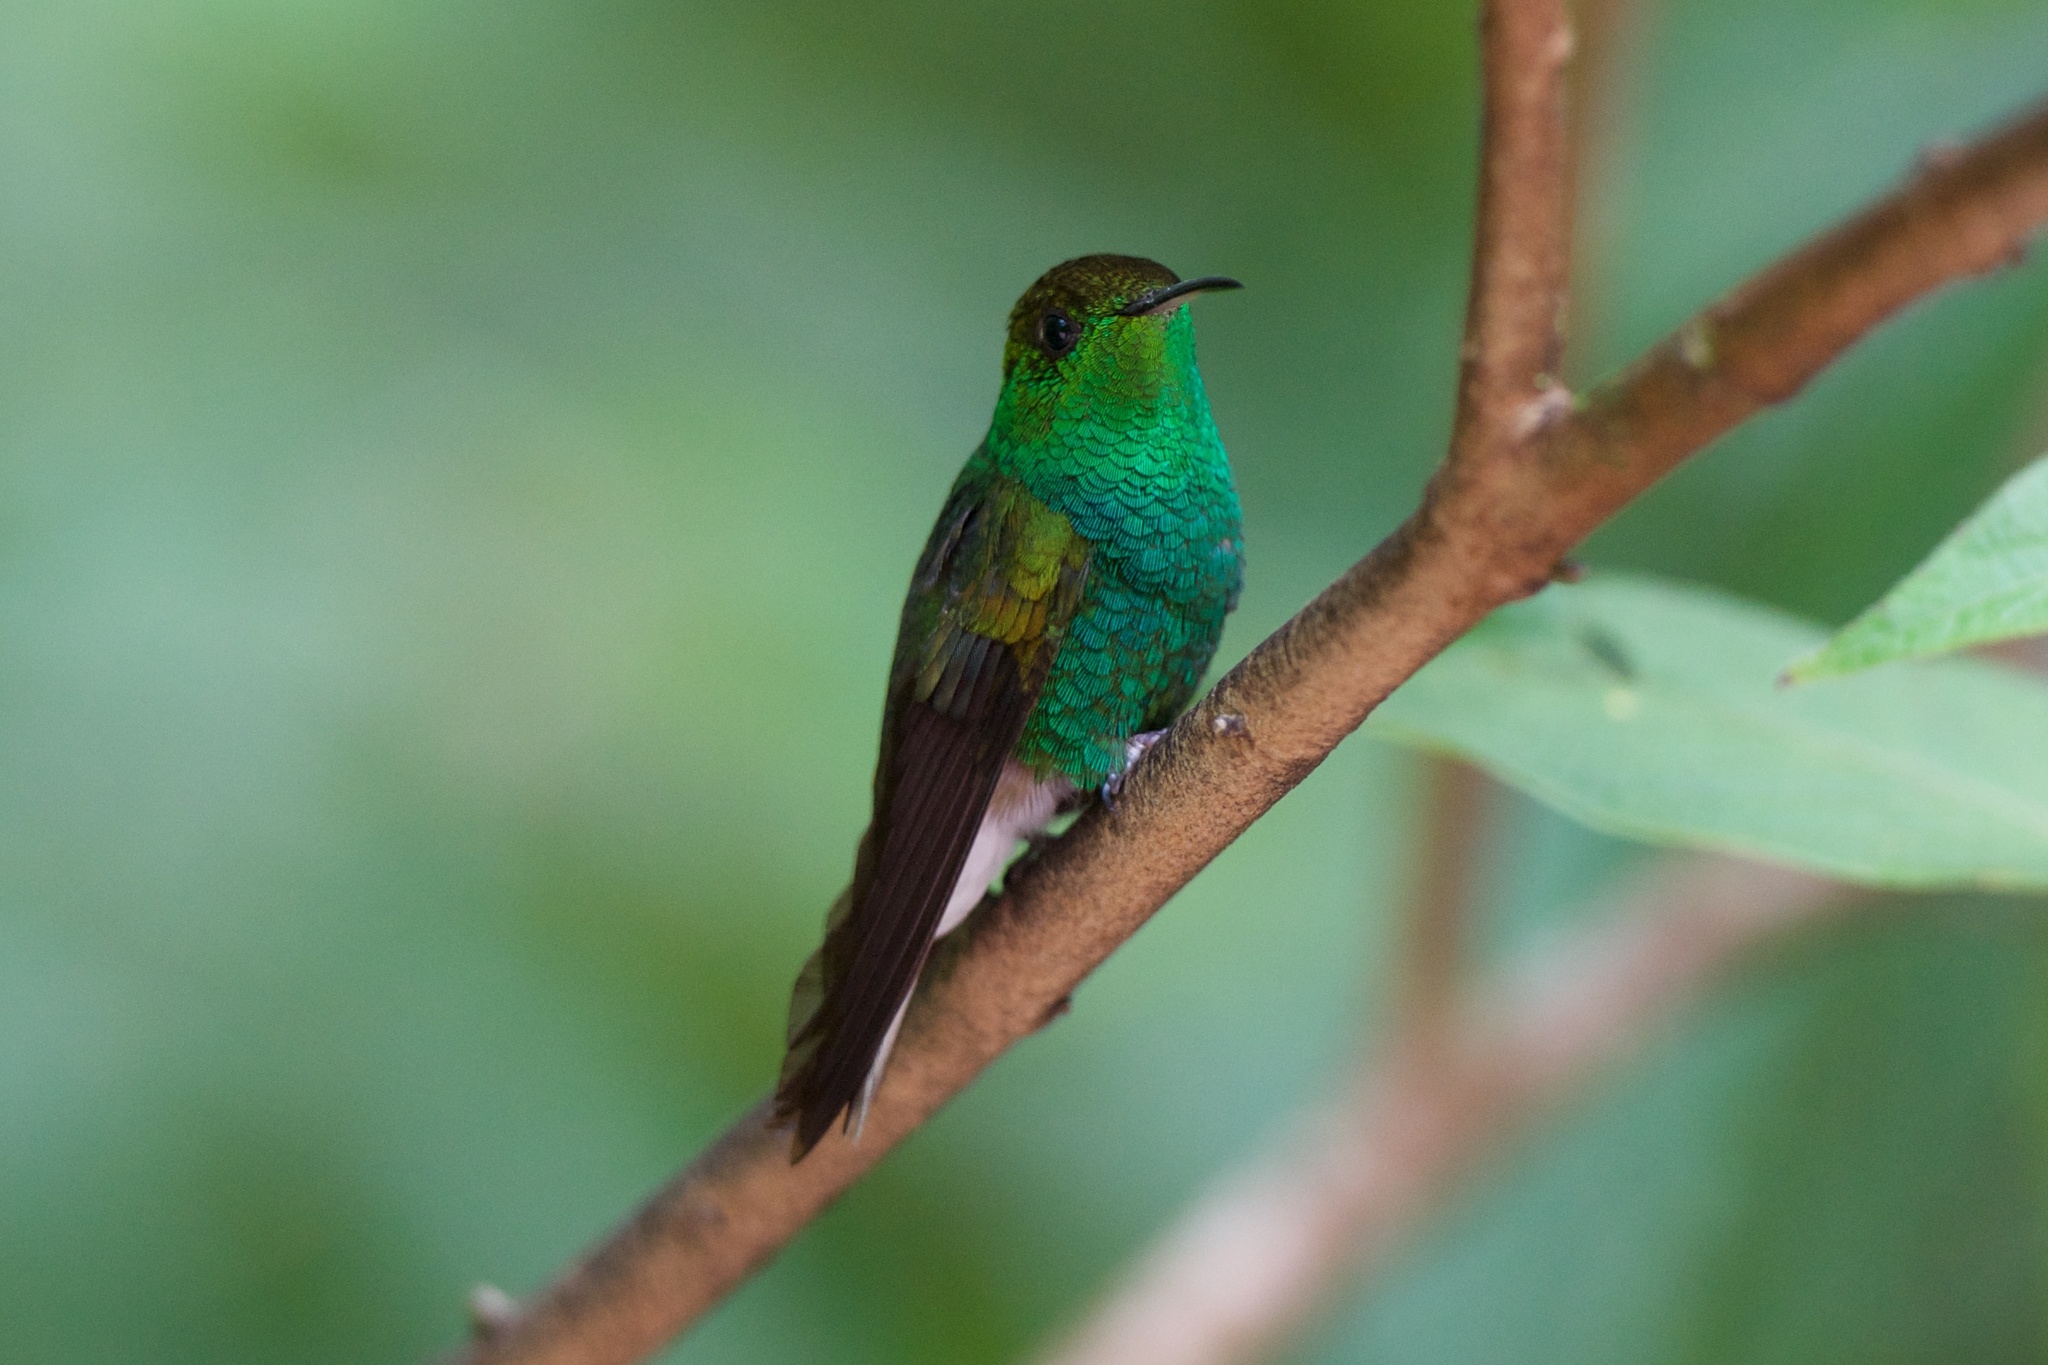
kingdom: Animalia
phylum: Chordata
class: Aves
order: Apodiformes
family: Trochilidae
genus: Microchera
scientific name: Microchera cupreiceps
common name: Coppery-headed emerald
